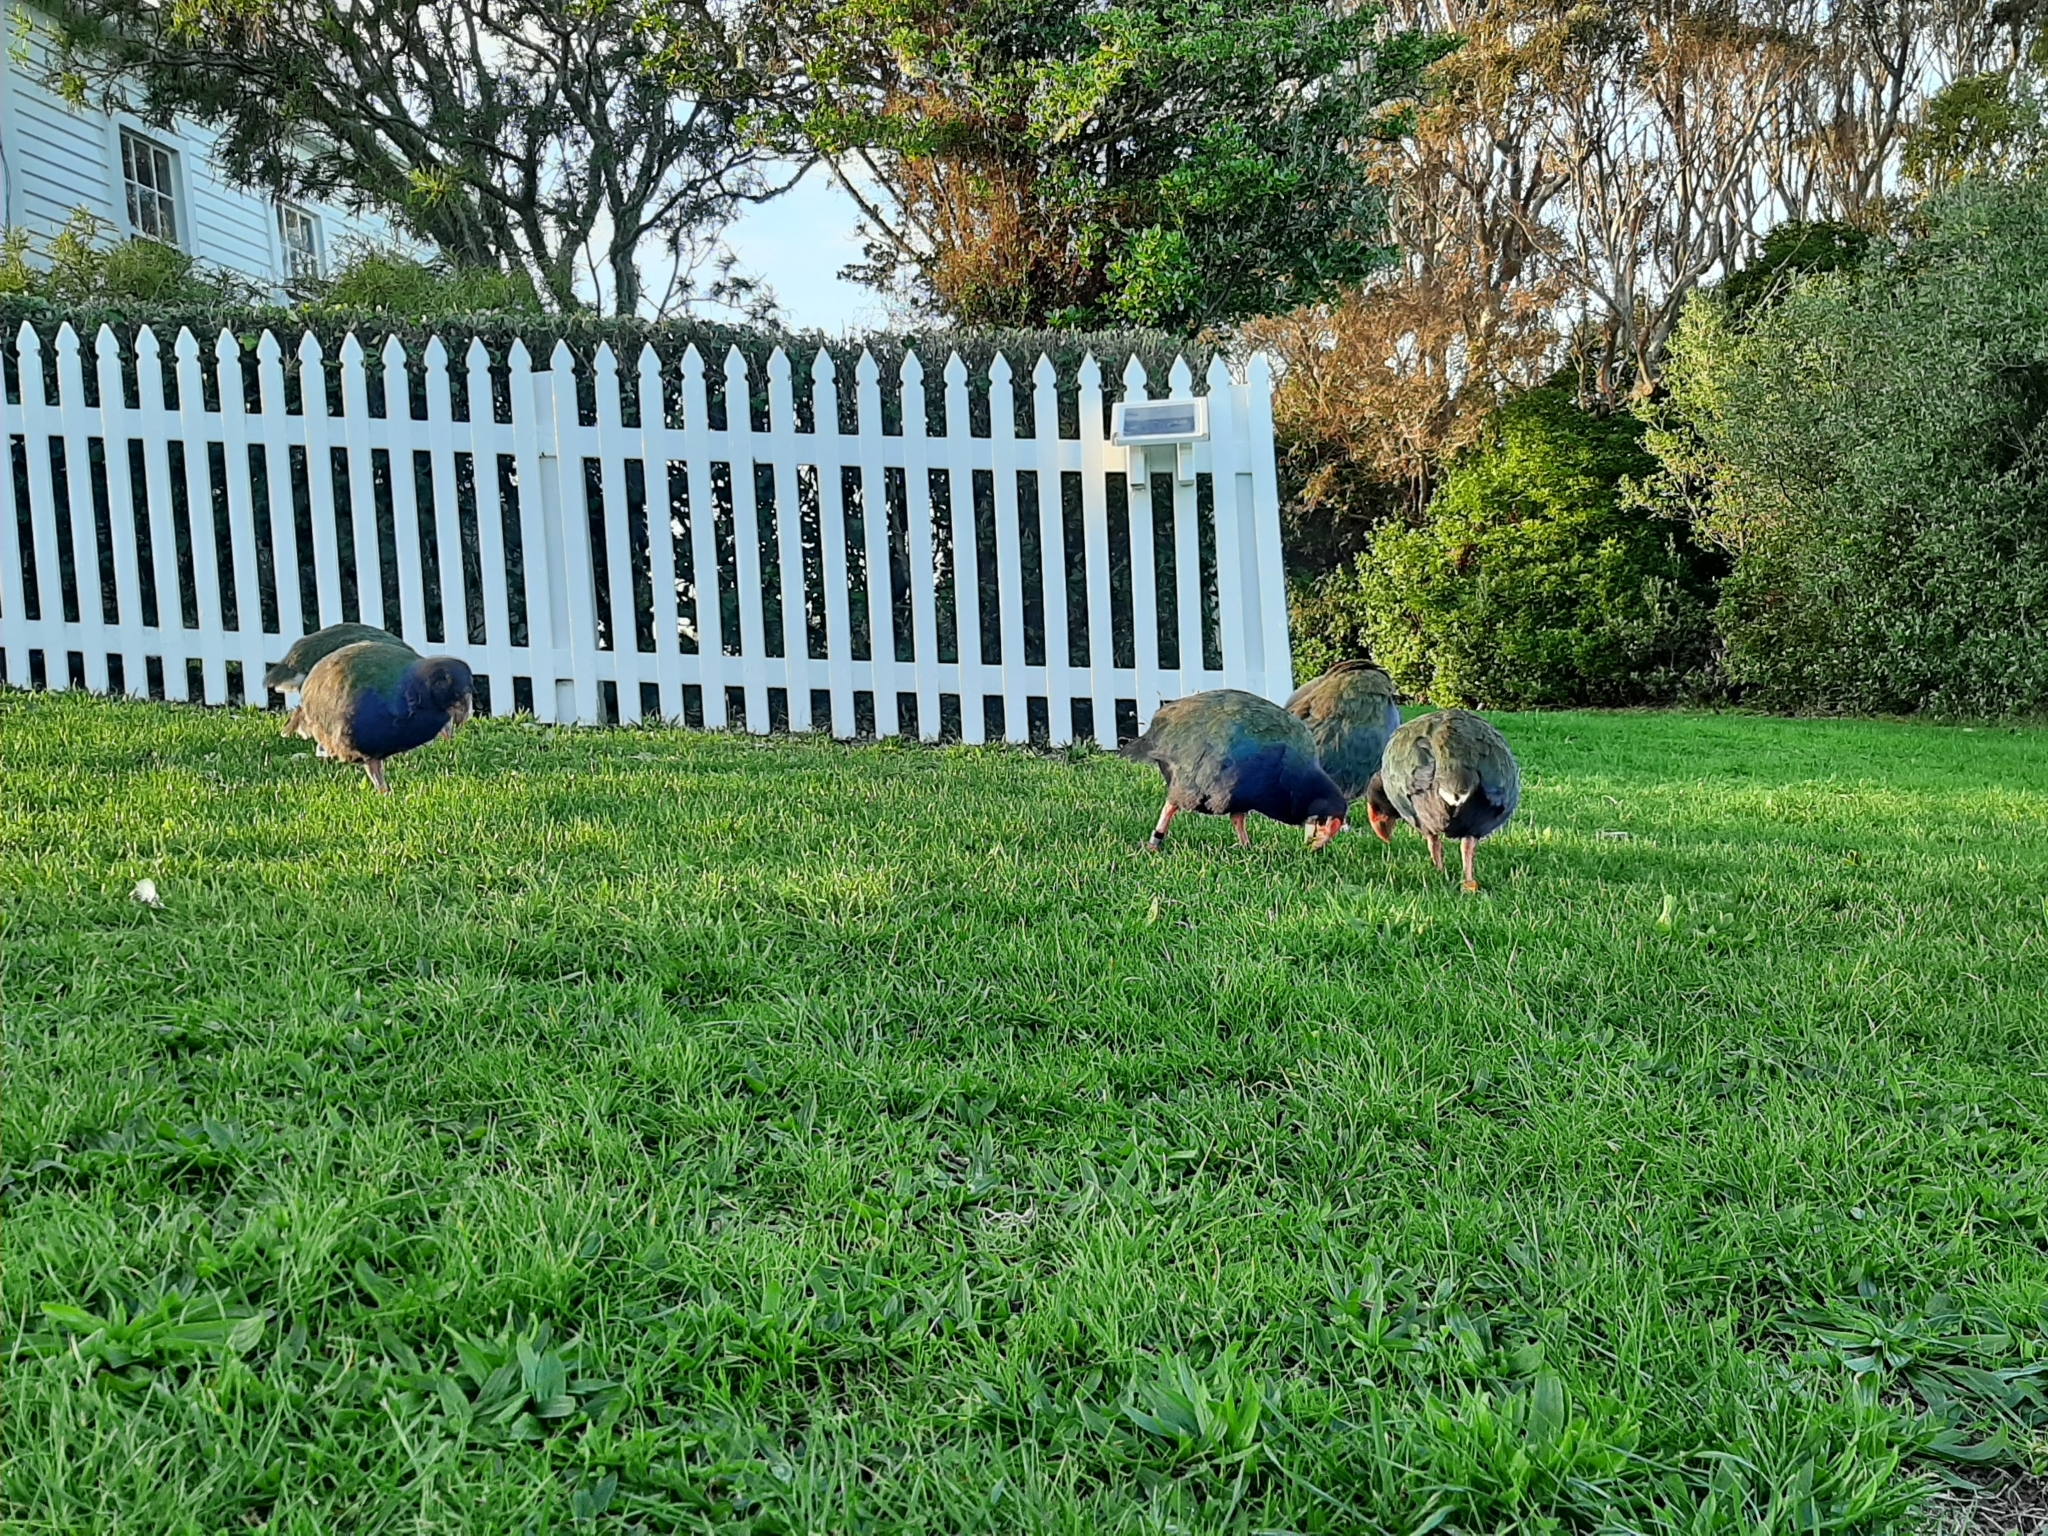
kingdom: Animalia
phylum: Chordata
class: Aves
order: Gruiformes
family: Rallidae
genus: Porphyrio
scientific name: Porphyrio hochstetteri
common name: South island takahe
